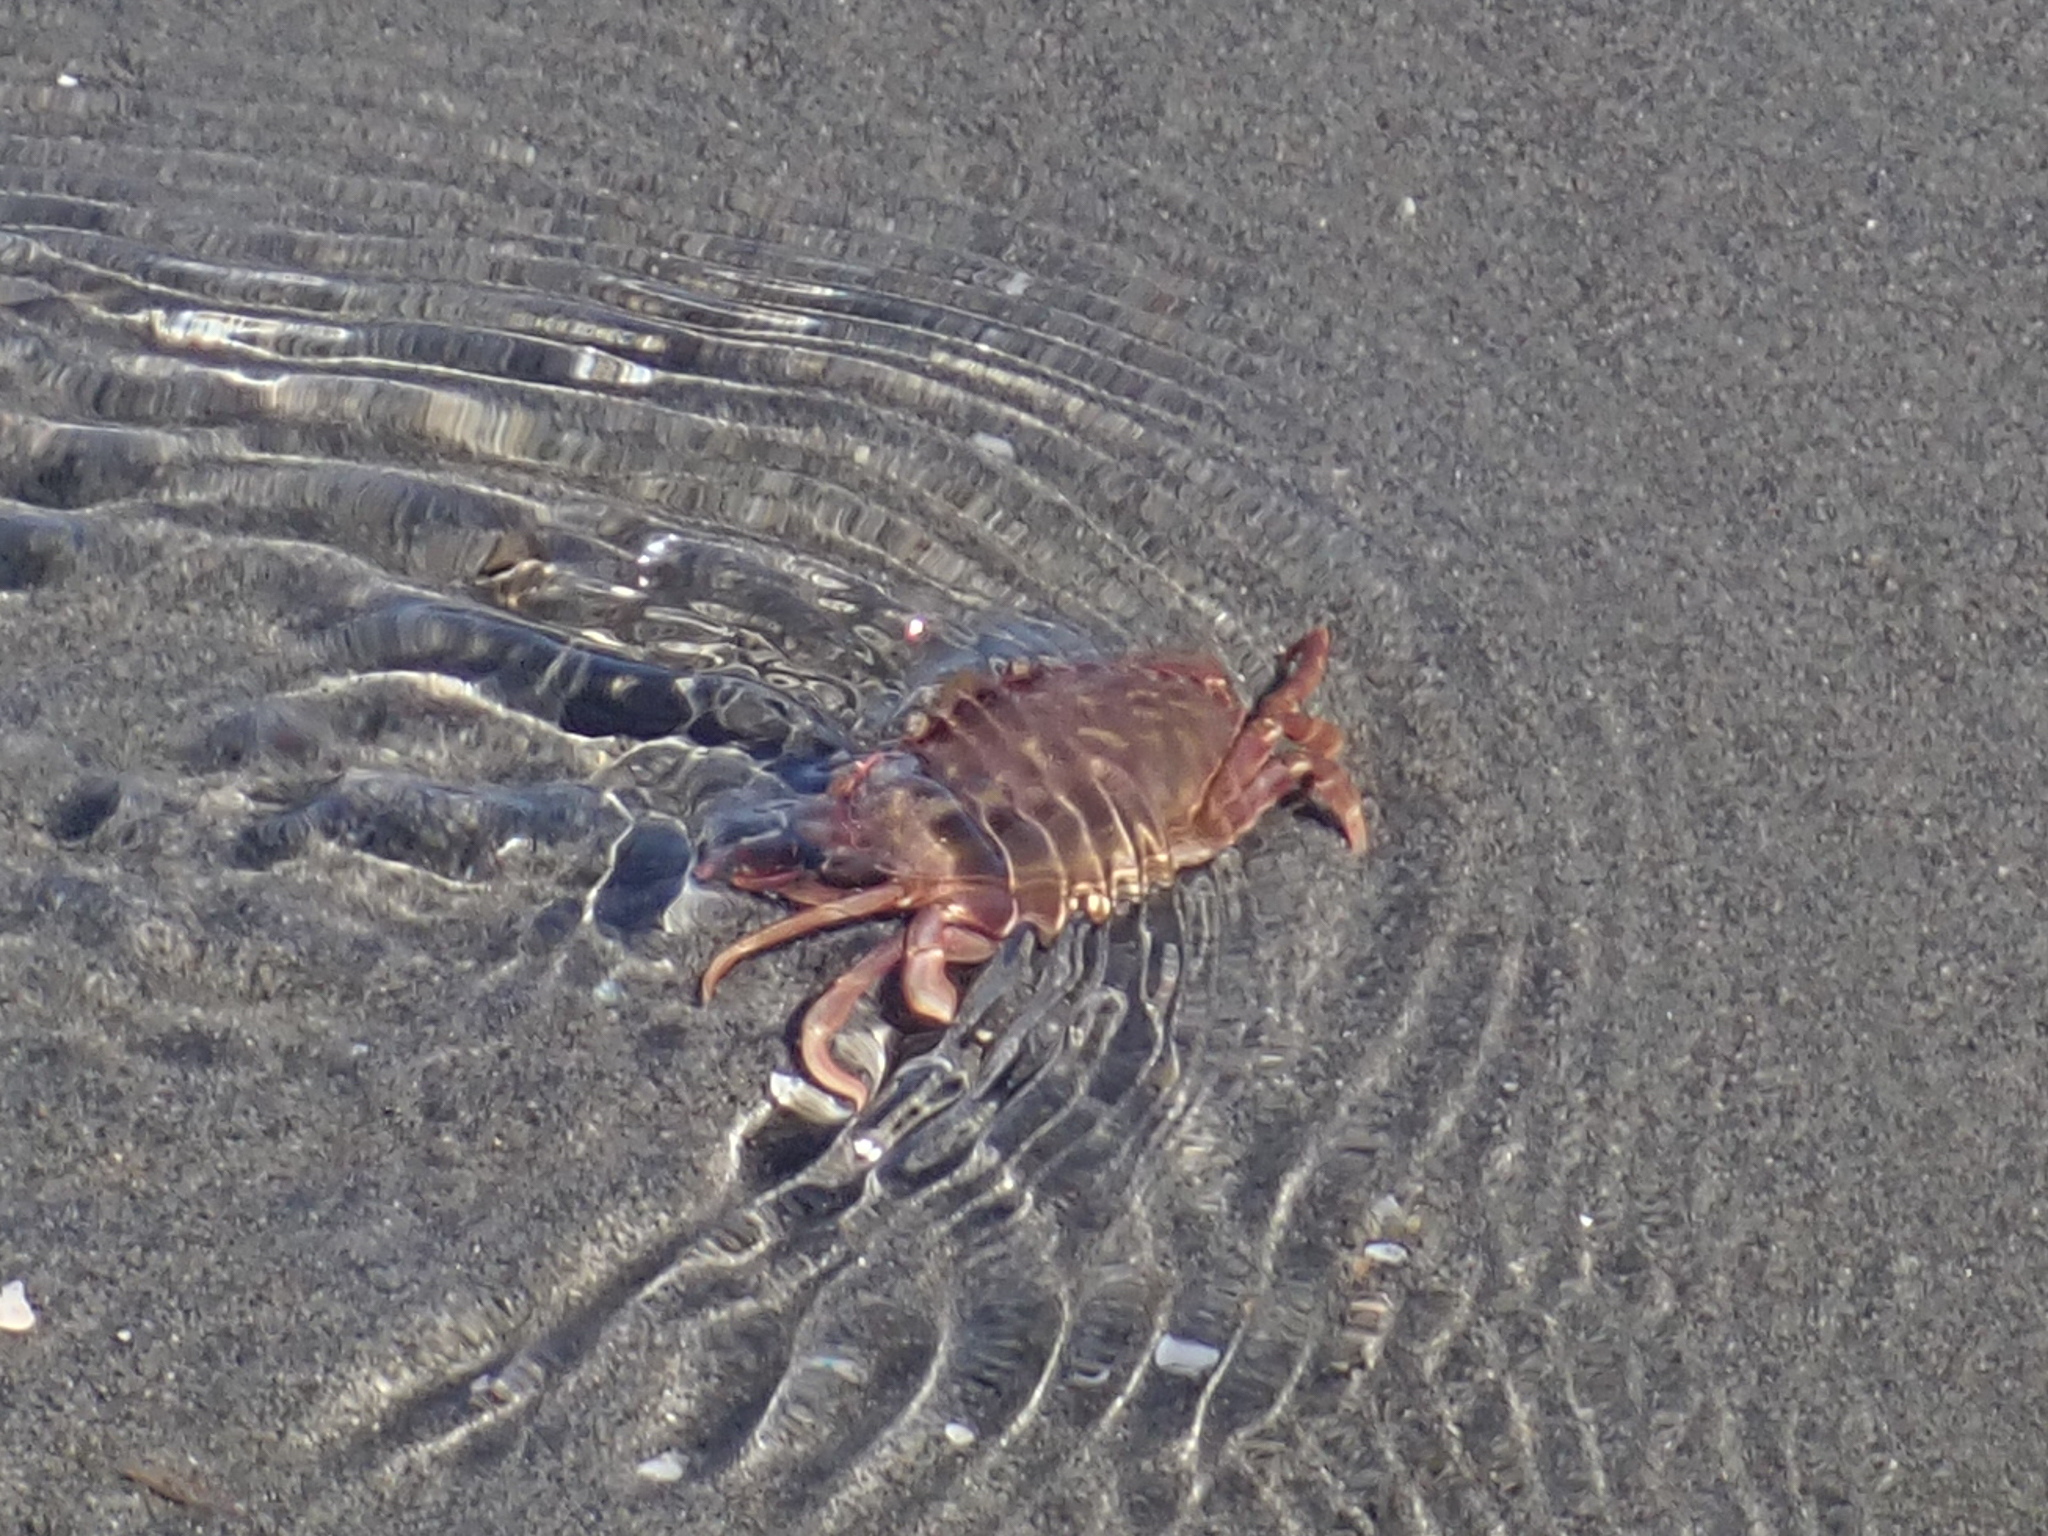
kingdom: Animalia
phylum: Arthropoda
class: Malacostraca
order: Decapoda
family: Cancridae
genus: Metacarcinus
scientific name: Metacarcinus gracilis
